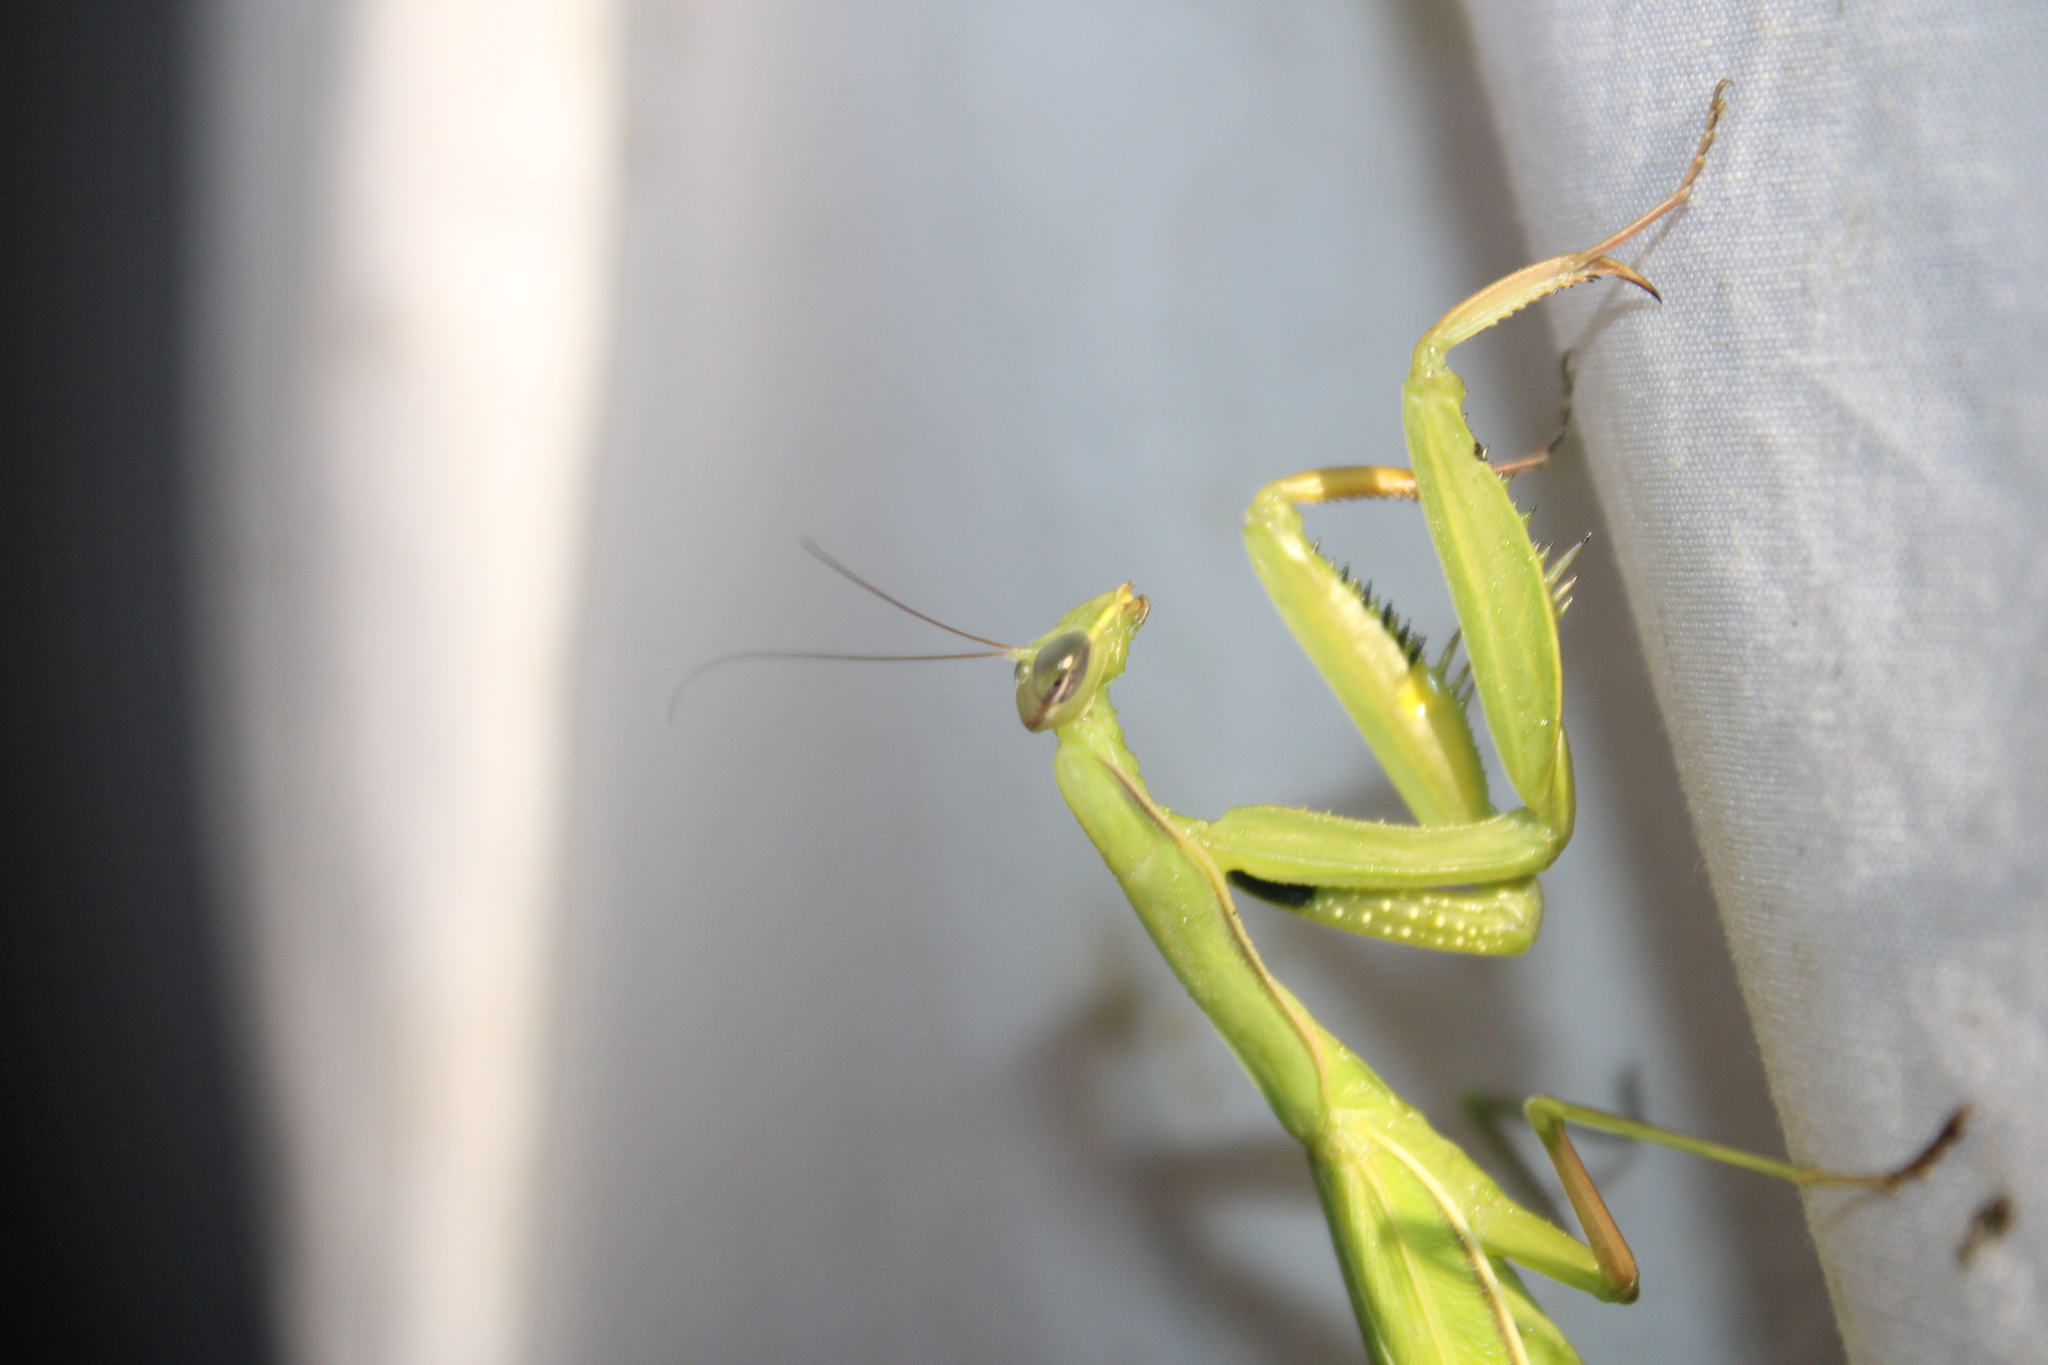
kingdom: Animalia
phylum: Arthropoda
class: Insecta
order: Mantodea
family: Mantidae
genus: Mantis
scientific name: Mantis religiosa
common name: Praying mantis
